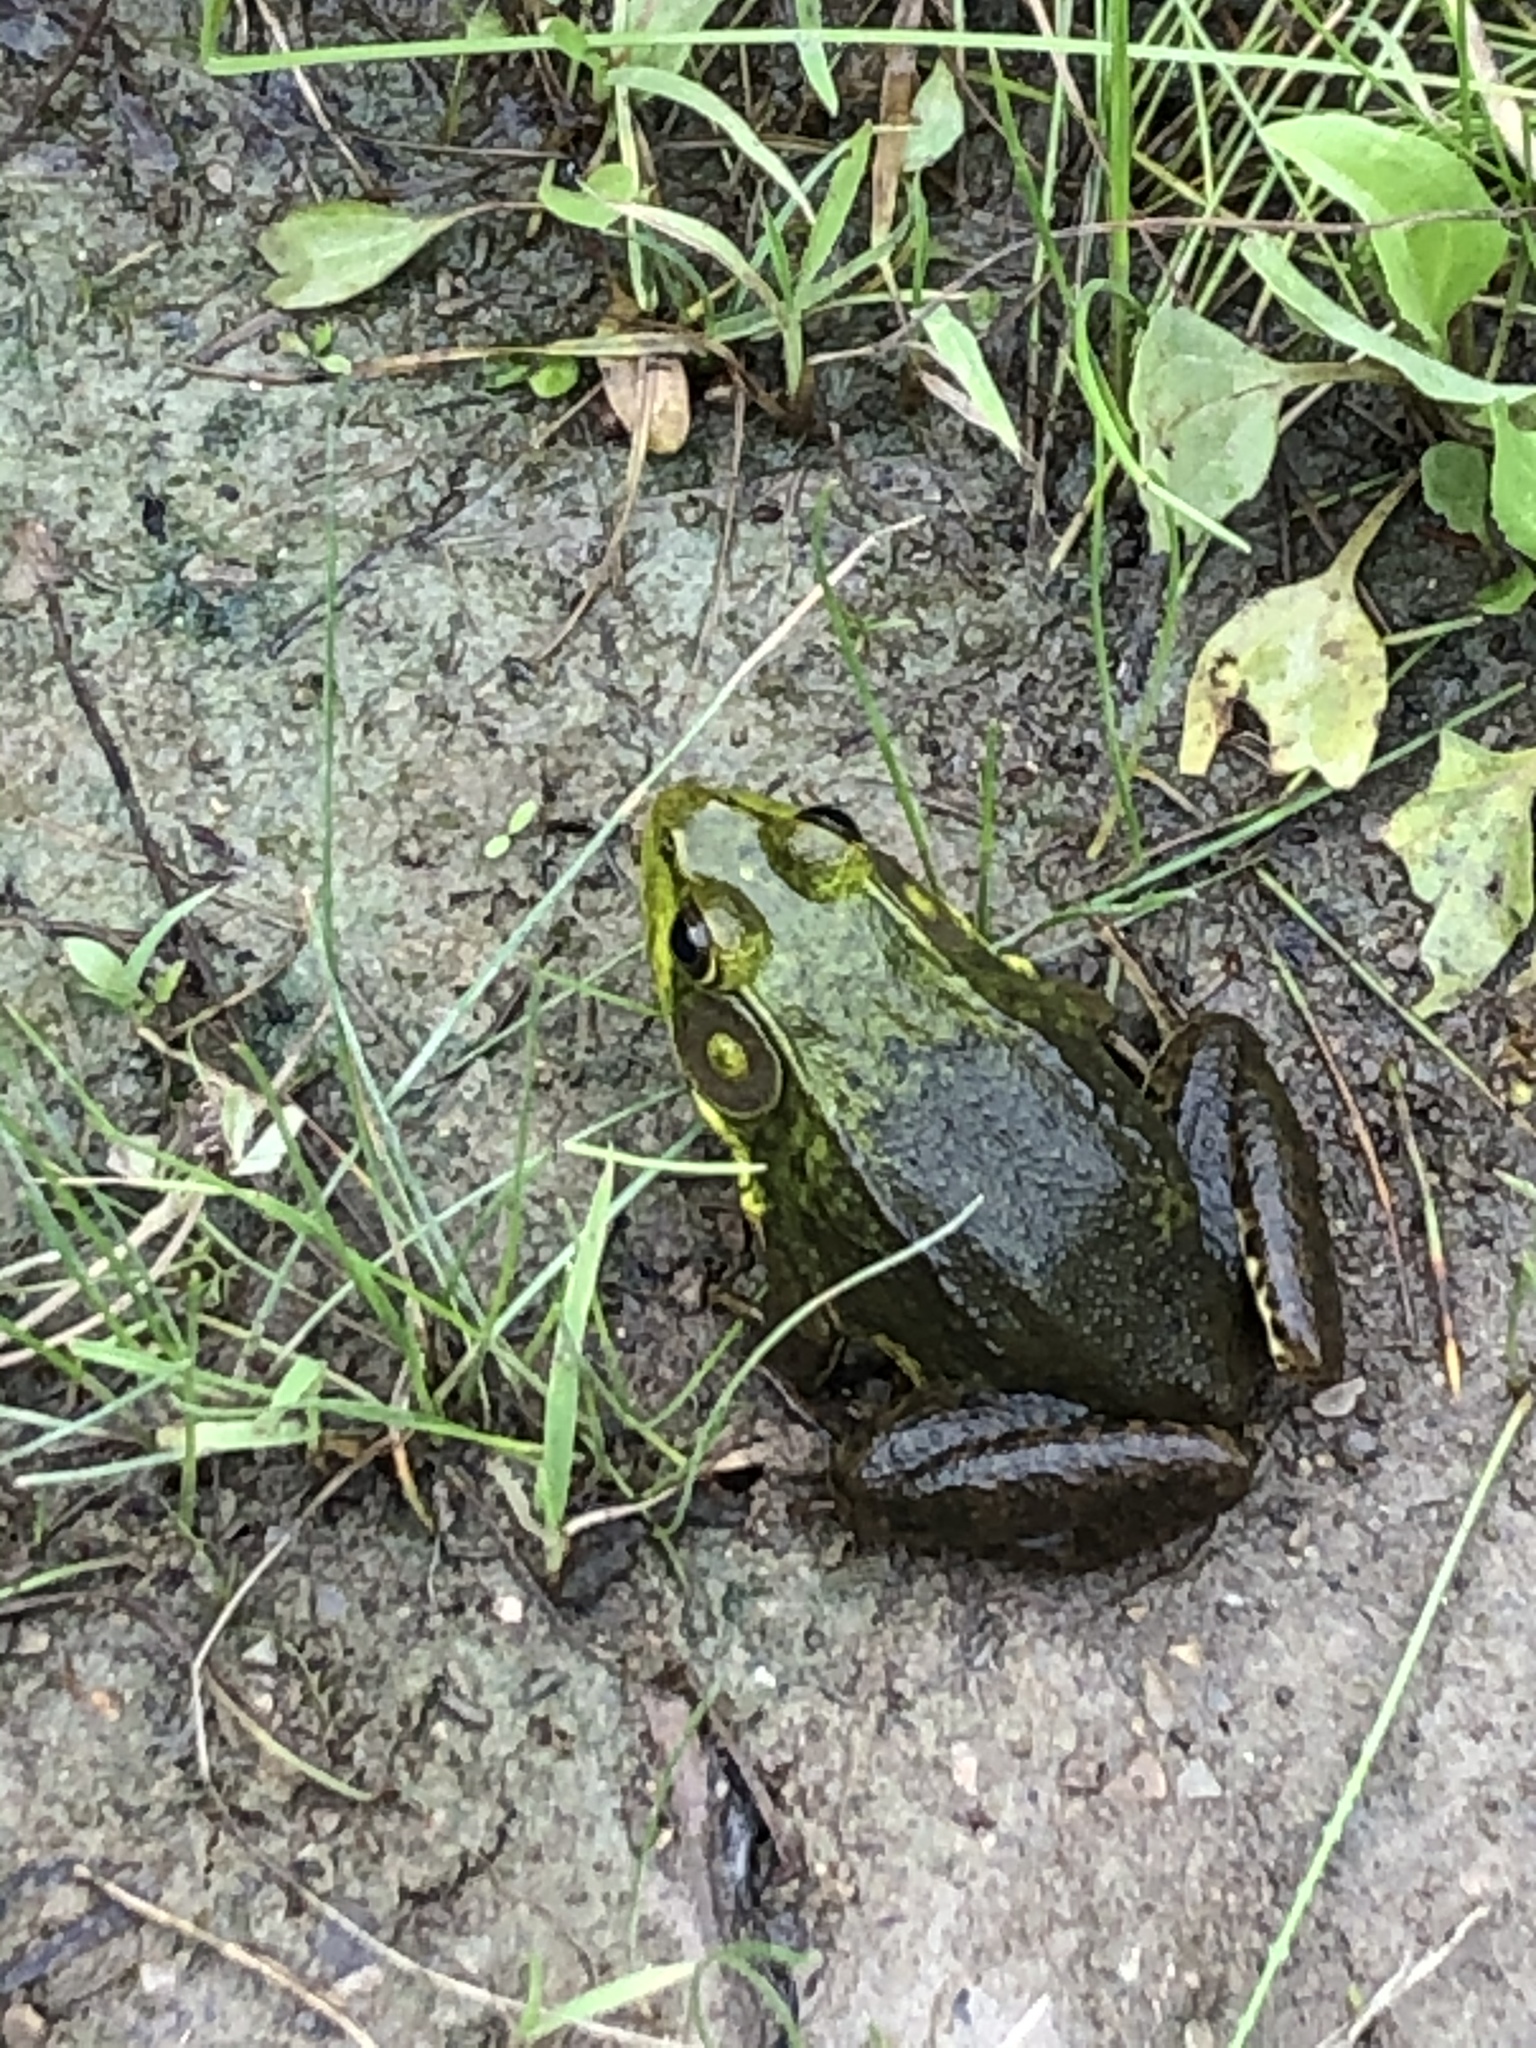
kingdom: Animalia
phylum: Chordata
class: Amphibia
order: Anura
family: Ranidae
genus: Lithobates
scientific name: Lithobates clamitans
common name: Green frog
